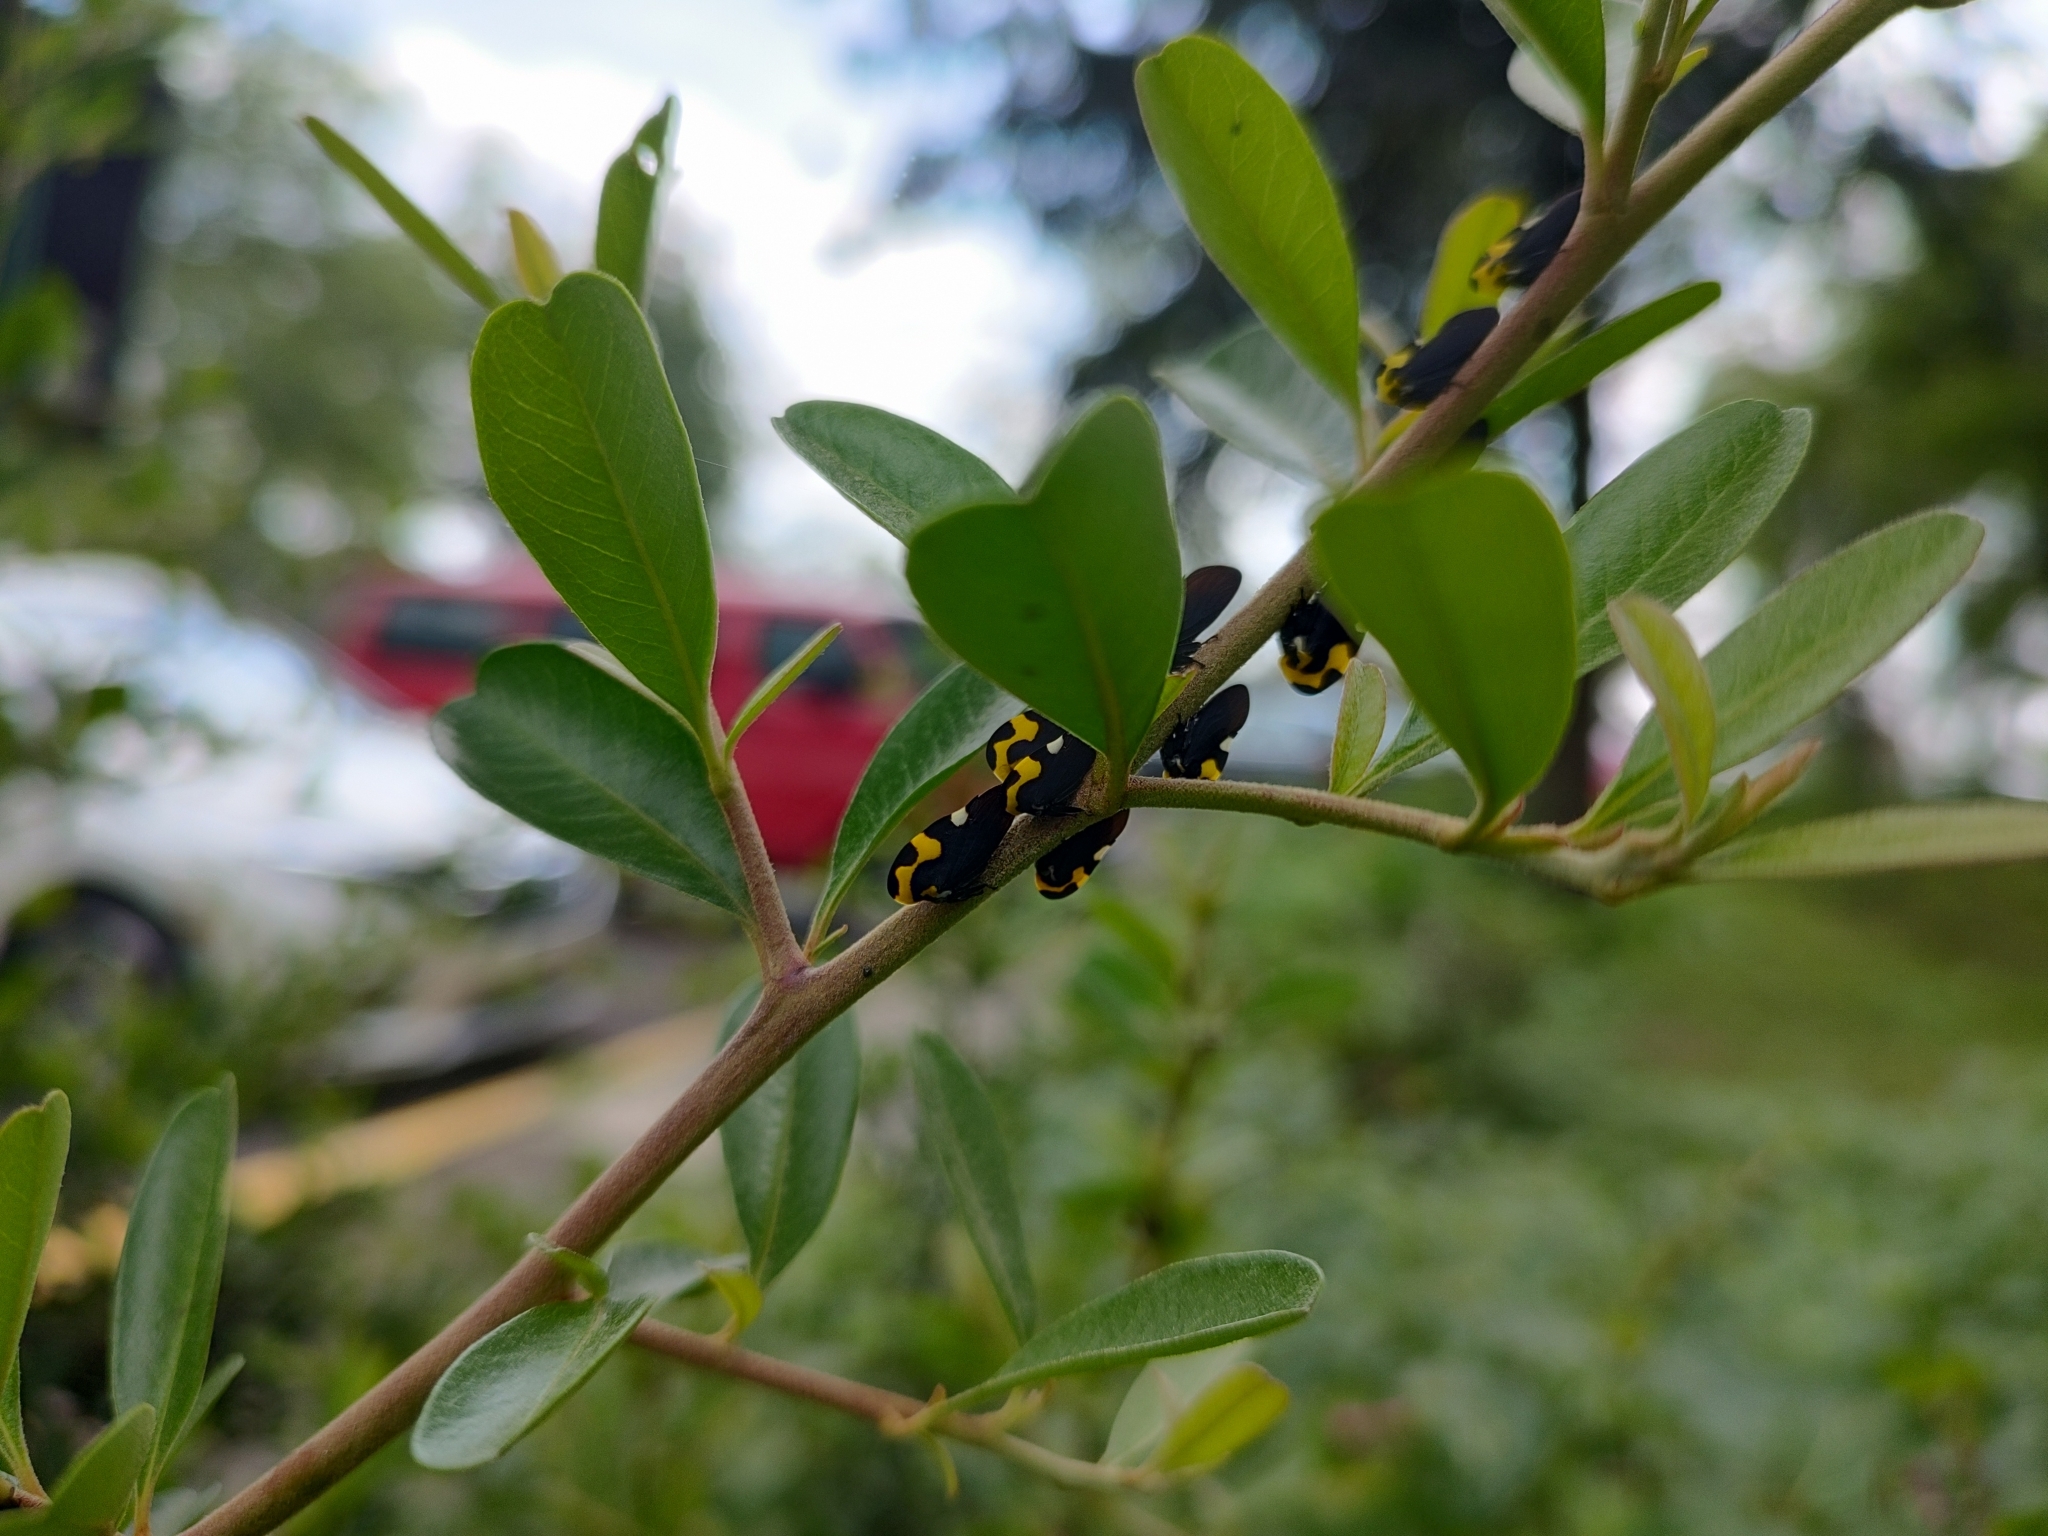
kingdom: Animalia
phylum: Arthropoda
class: Insecta
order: Hemiptera
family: Membracidae
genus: Membracis
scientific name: Membracis mexicana
